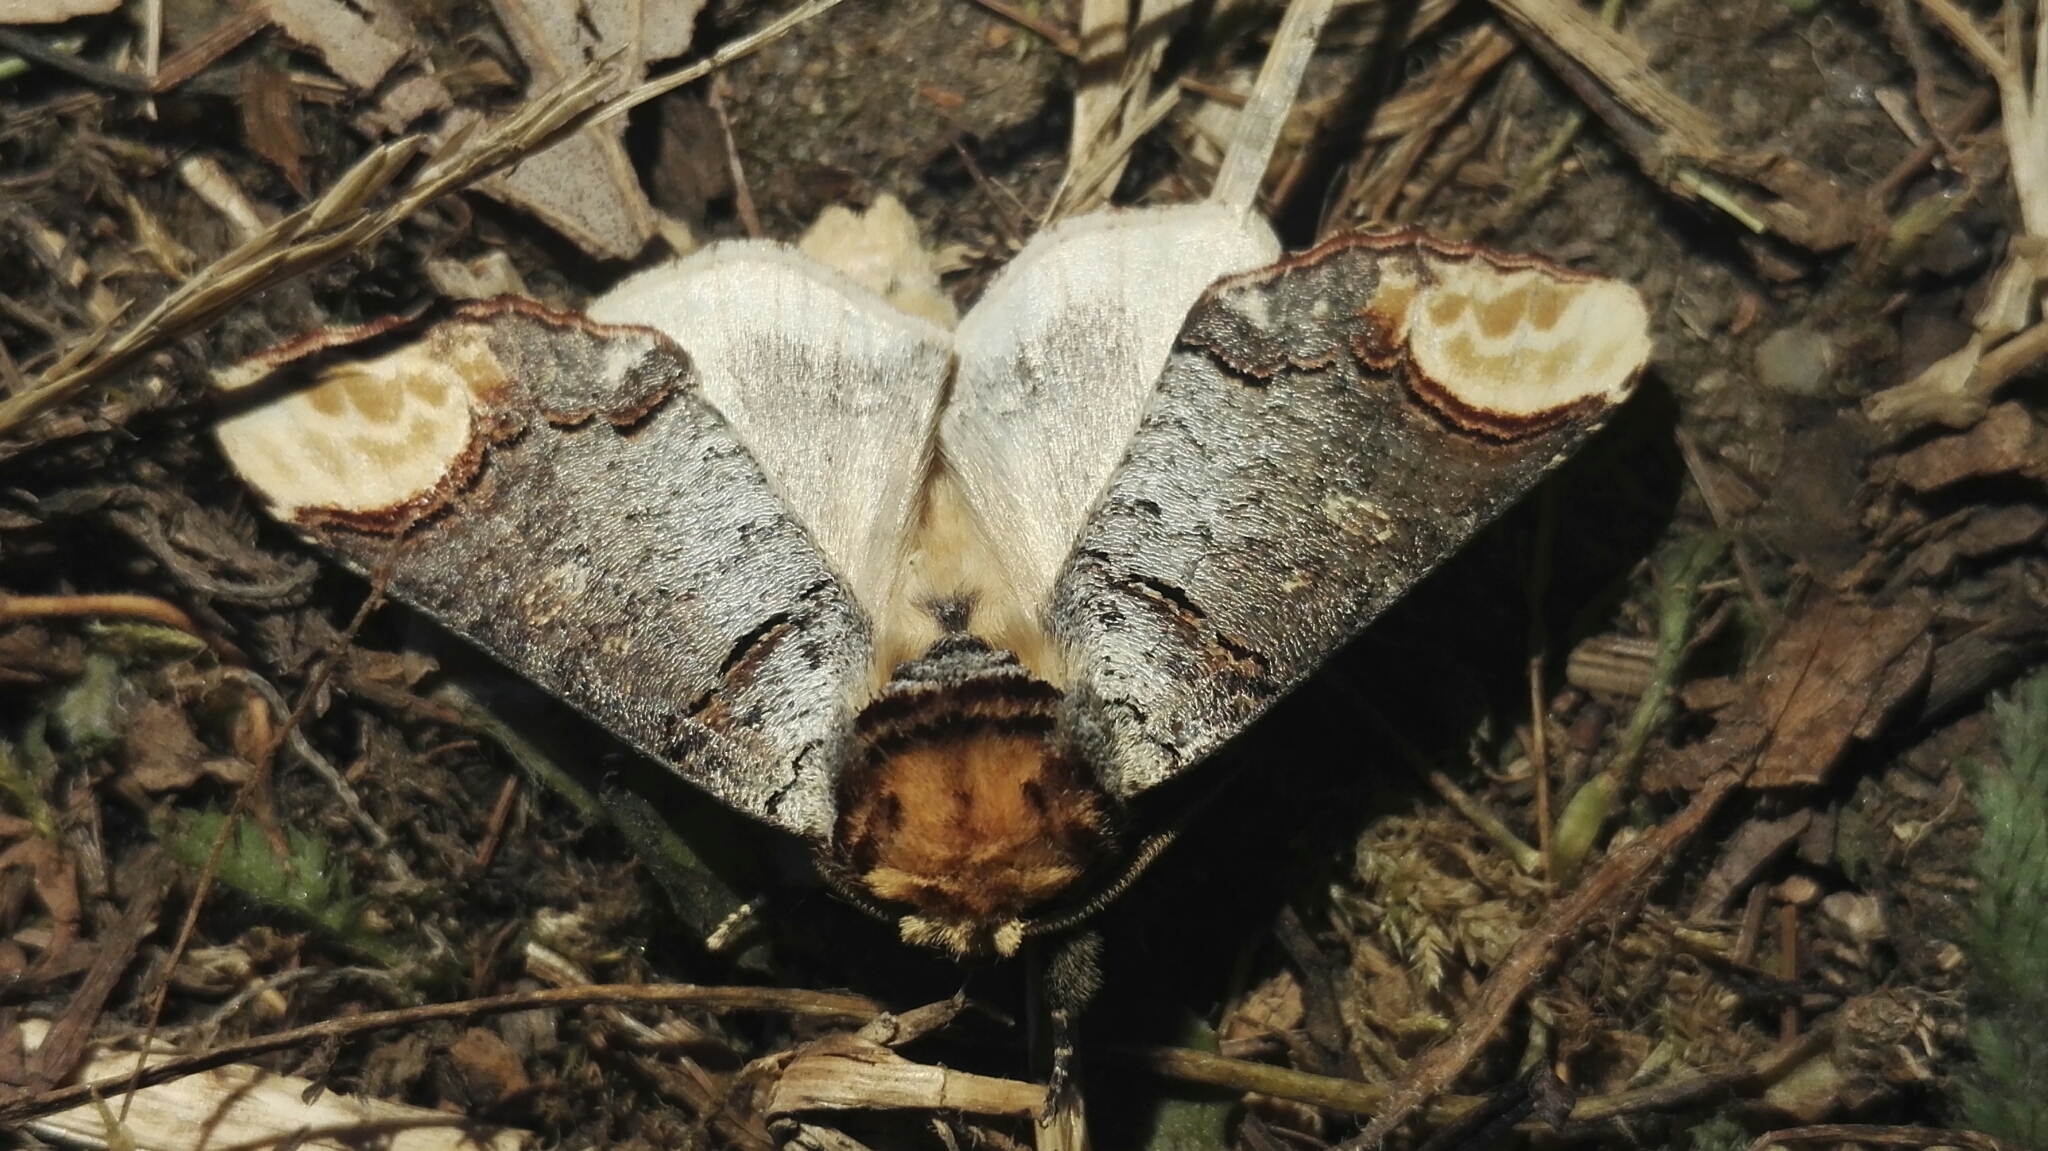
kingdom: Animalia
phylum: Arthropoda
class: Insecta
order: Lepidoptera
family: Notodontidae
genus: Phalera
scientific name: Phalera bucephala
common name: Buff-tip
